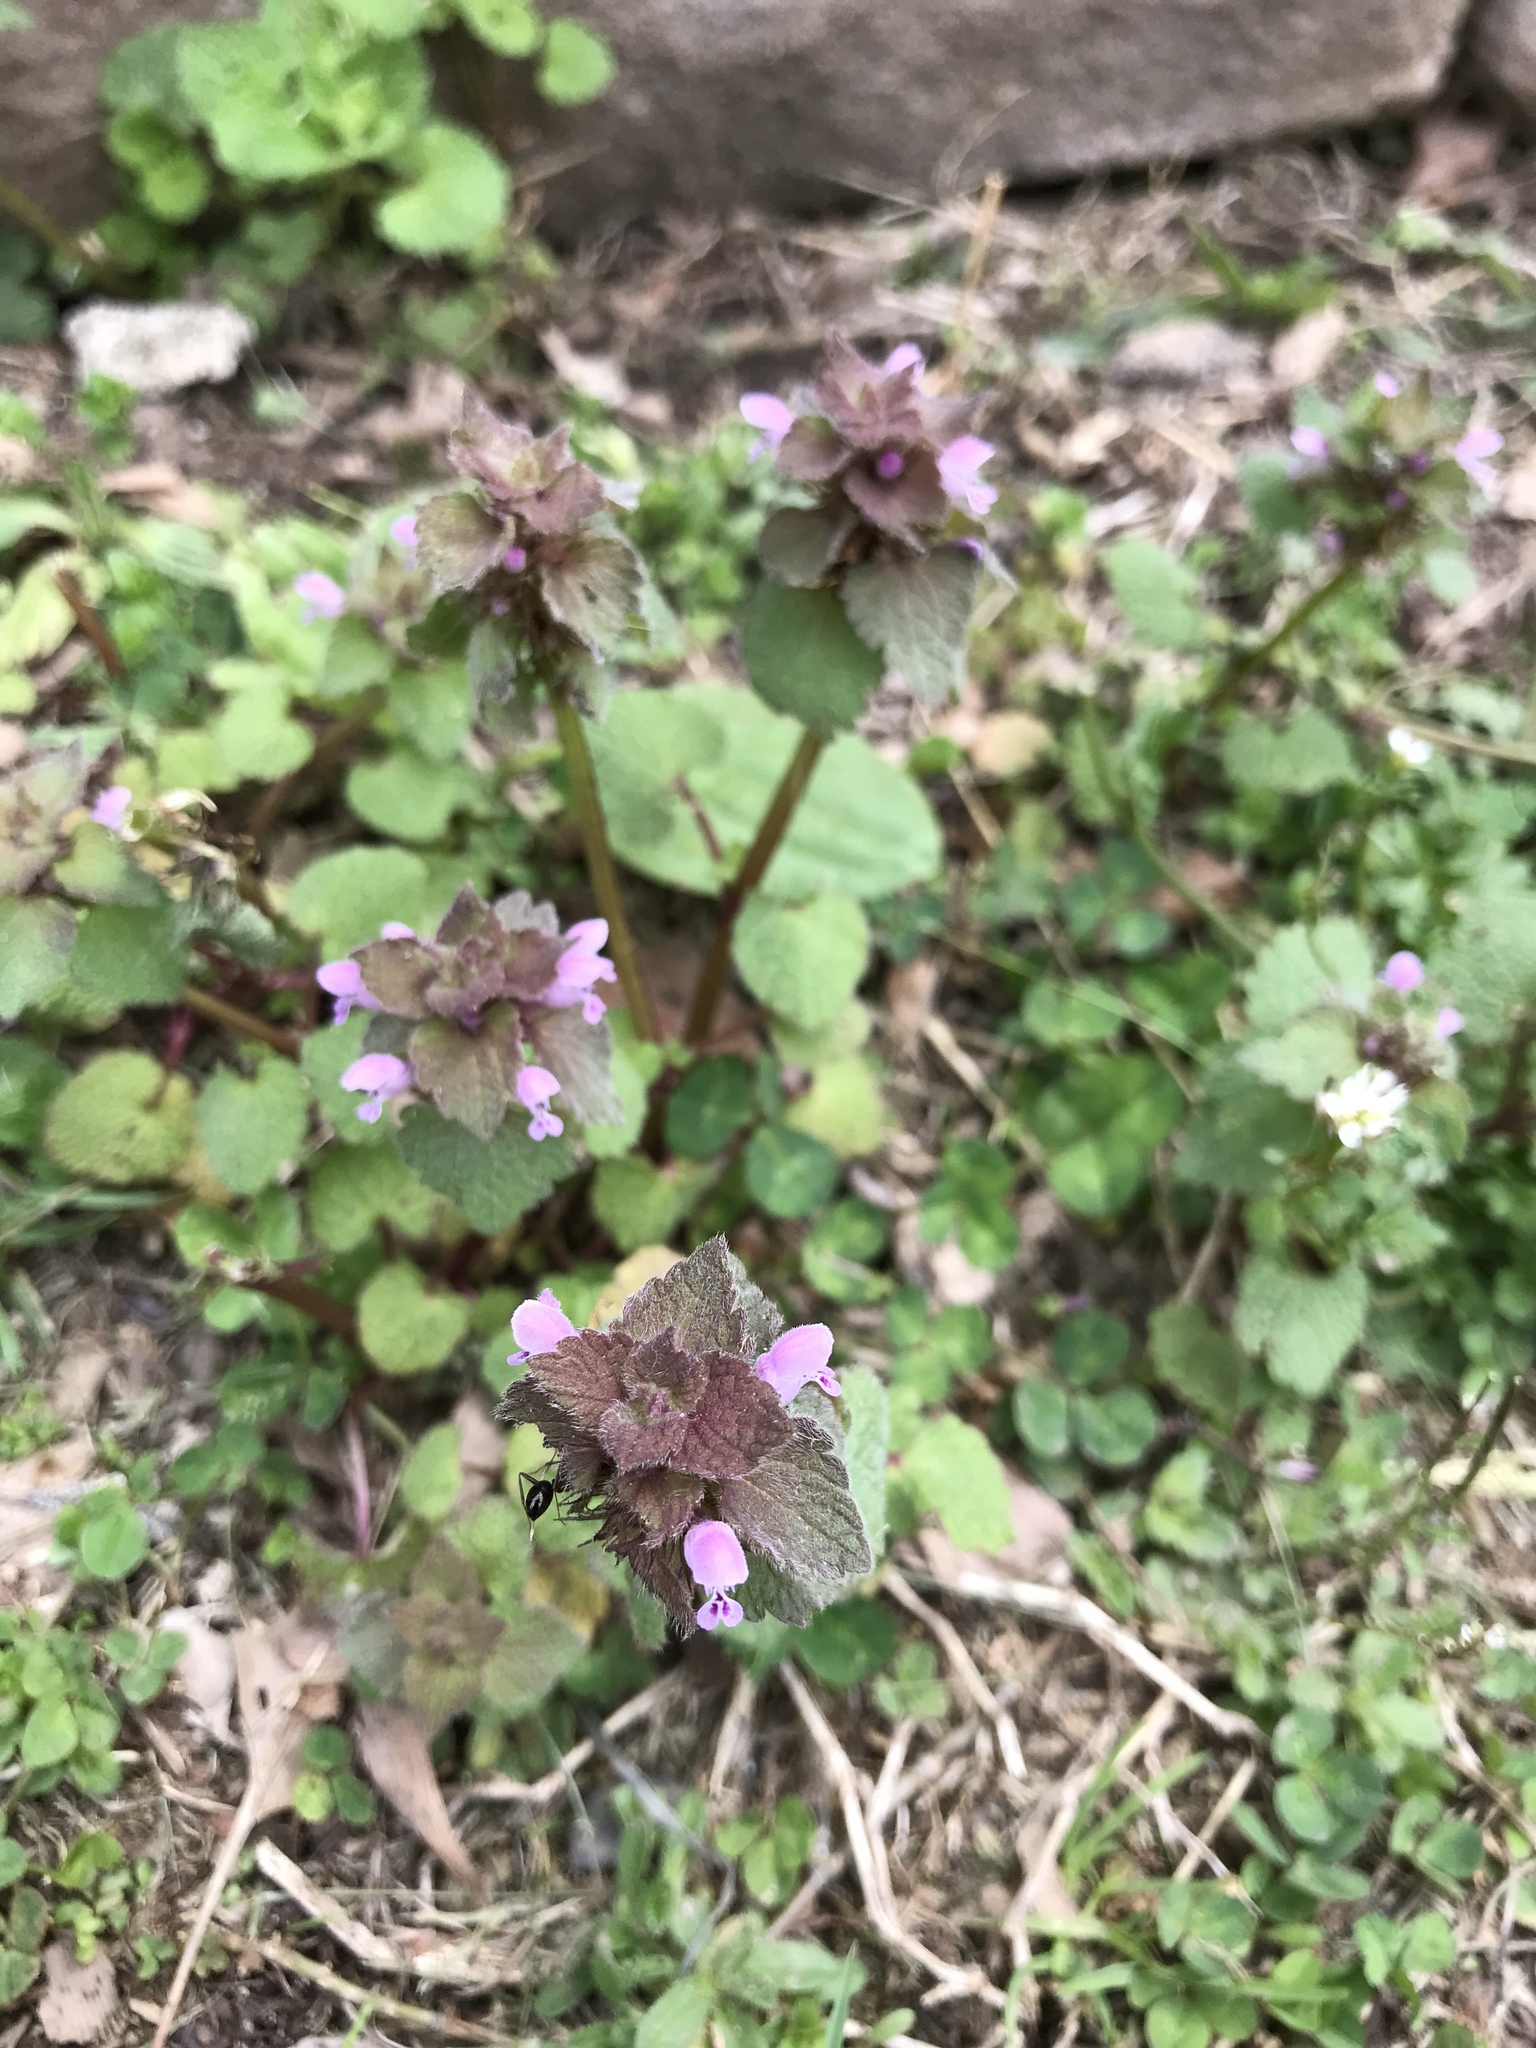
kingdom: Plantae
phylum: Tracheophyta
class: Magnoliopsida
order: Lamiales
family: Lamiaceae
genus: Lamium
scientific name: Lamium purpureum
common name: Red dead-nettle
